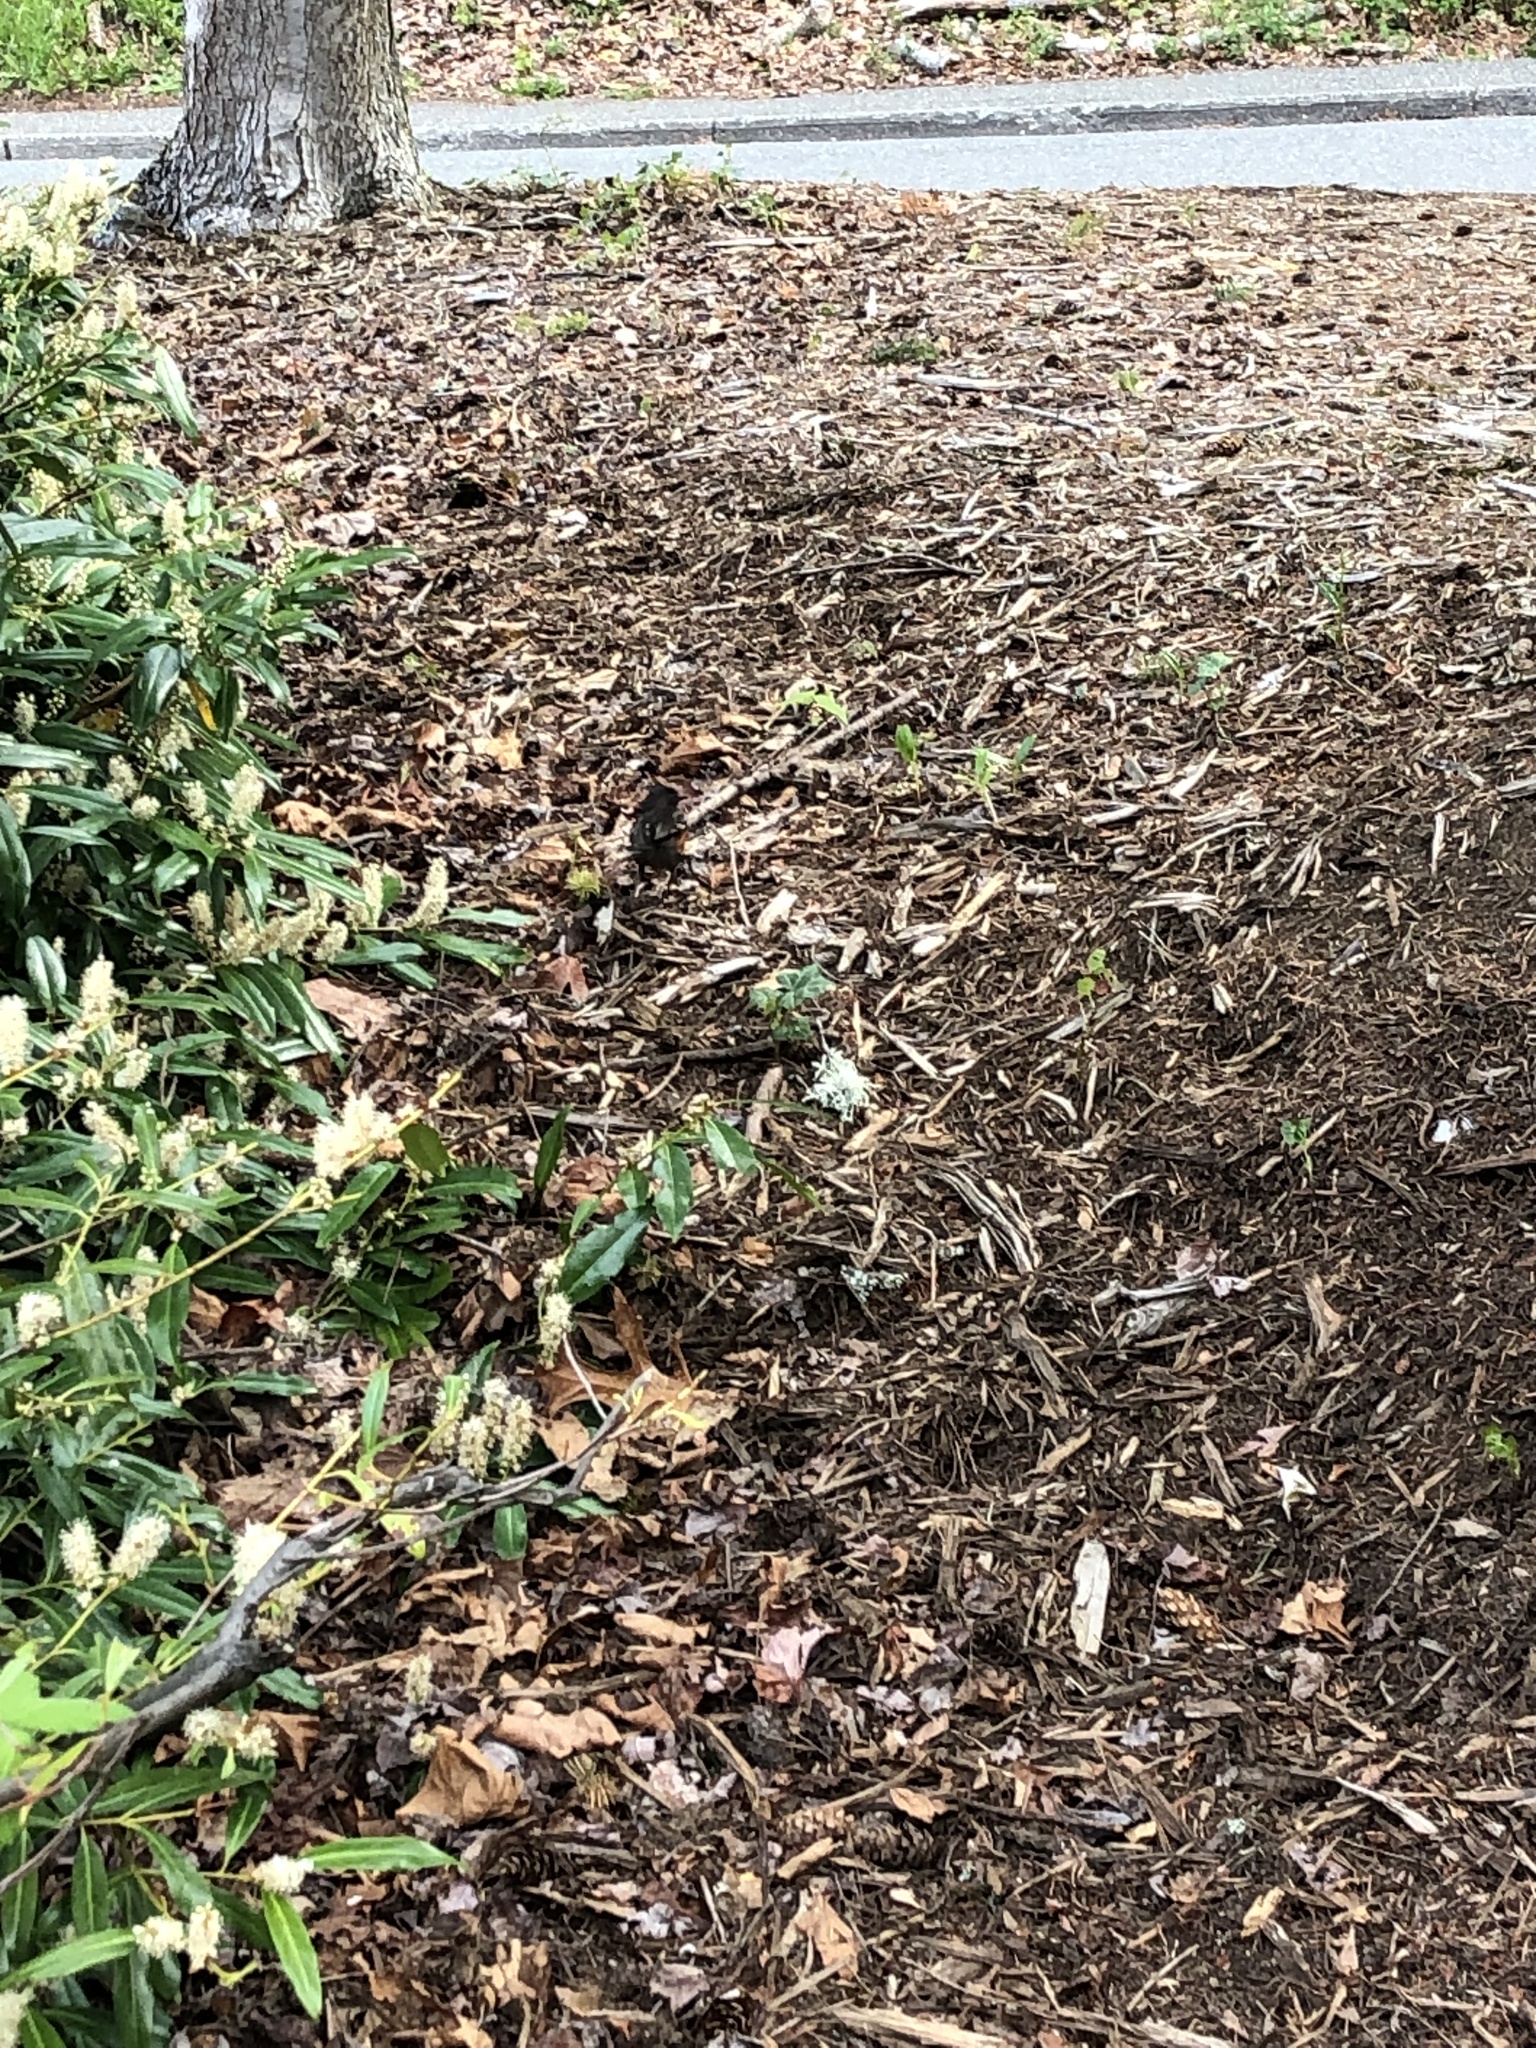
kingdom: Animalia
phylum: Chordata
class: Aves
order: Passeriformes
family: Passerellidae
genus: Pipilo
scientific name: Pipilo maculatus
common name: Spotted towhee
